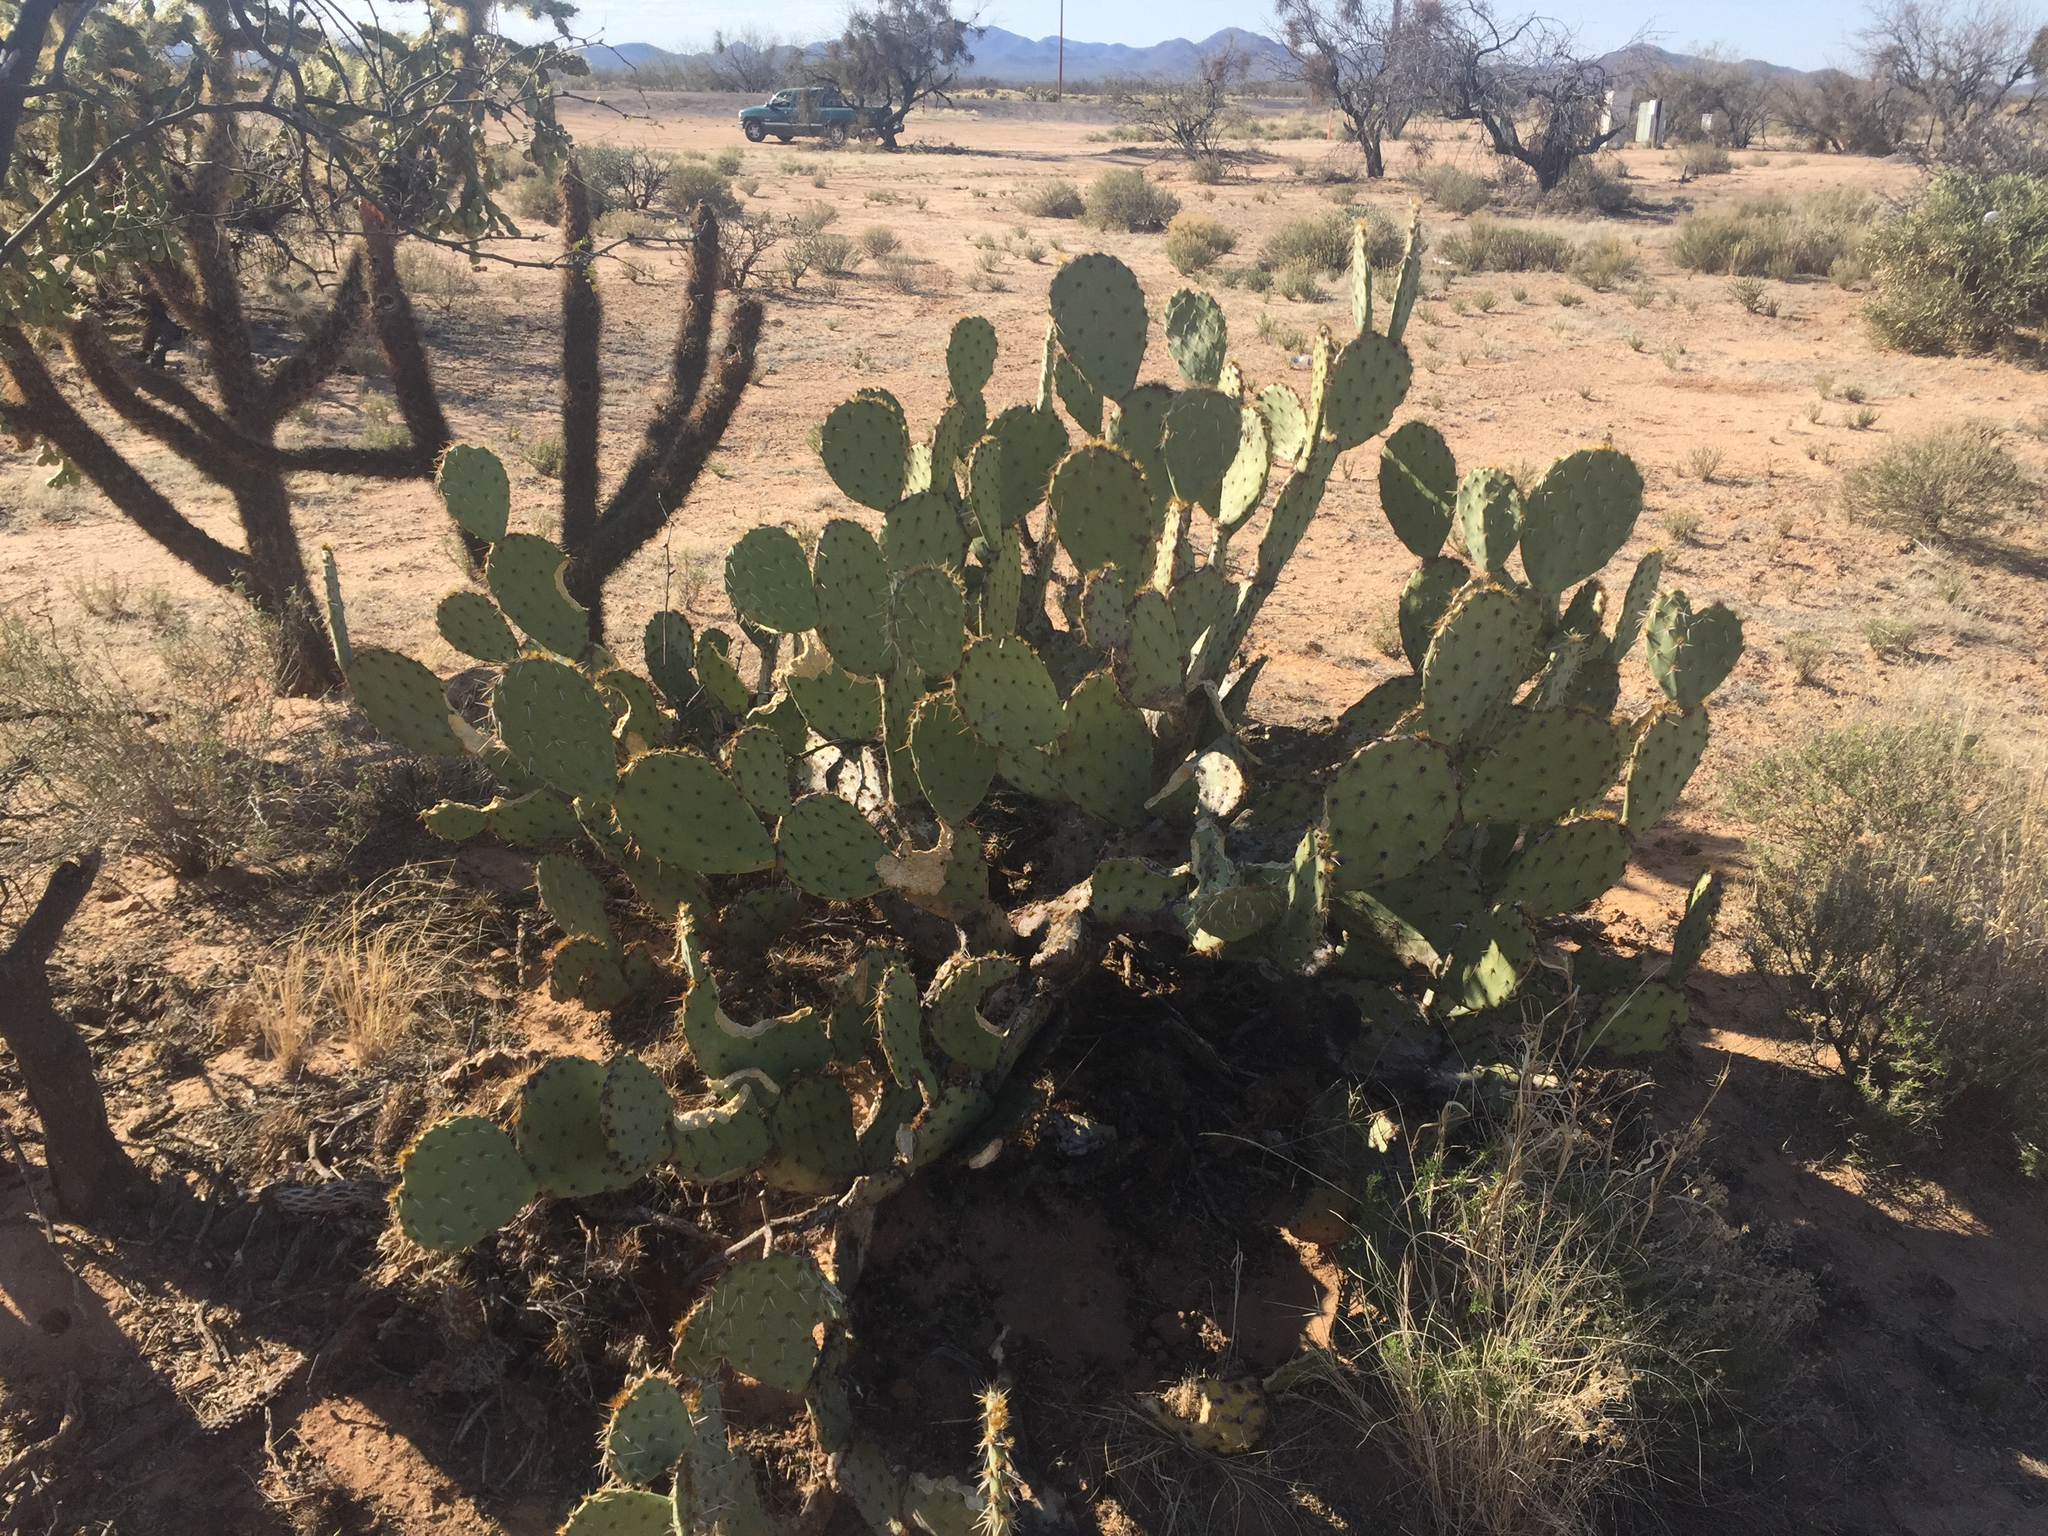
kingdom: Plantae
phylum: Tracheophyta
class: Magnoliopsida
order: Caryophyllales
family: Cactaceae
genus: Opuntia
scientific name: Opuntia engelmannii
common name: Cactus-apple
